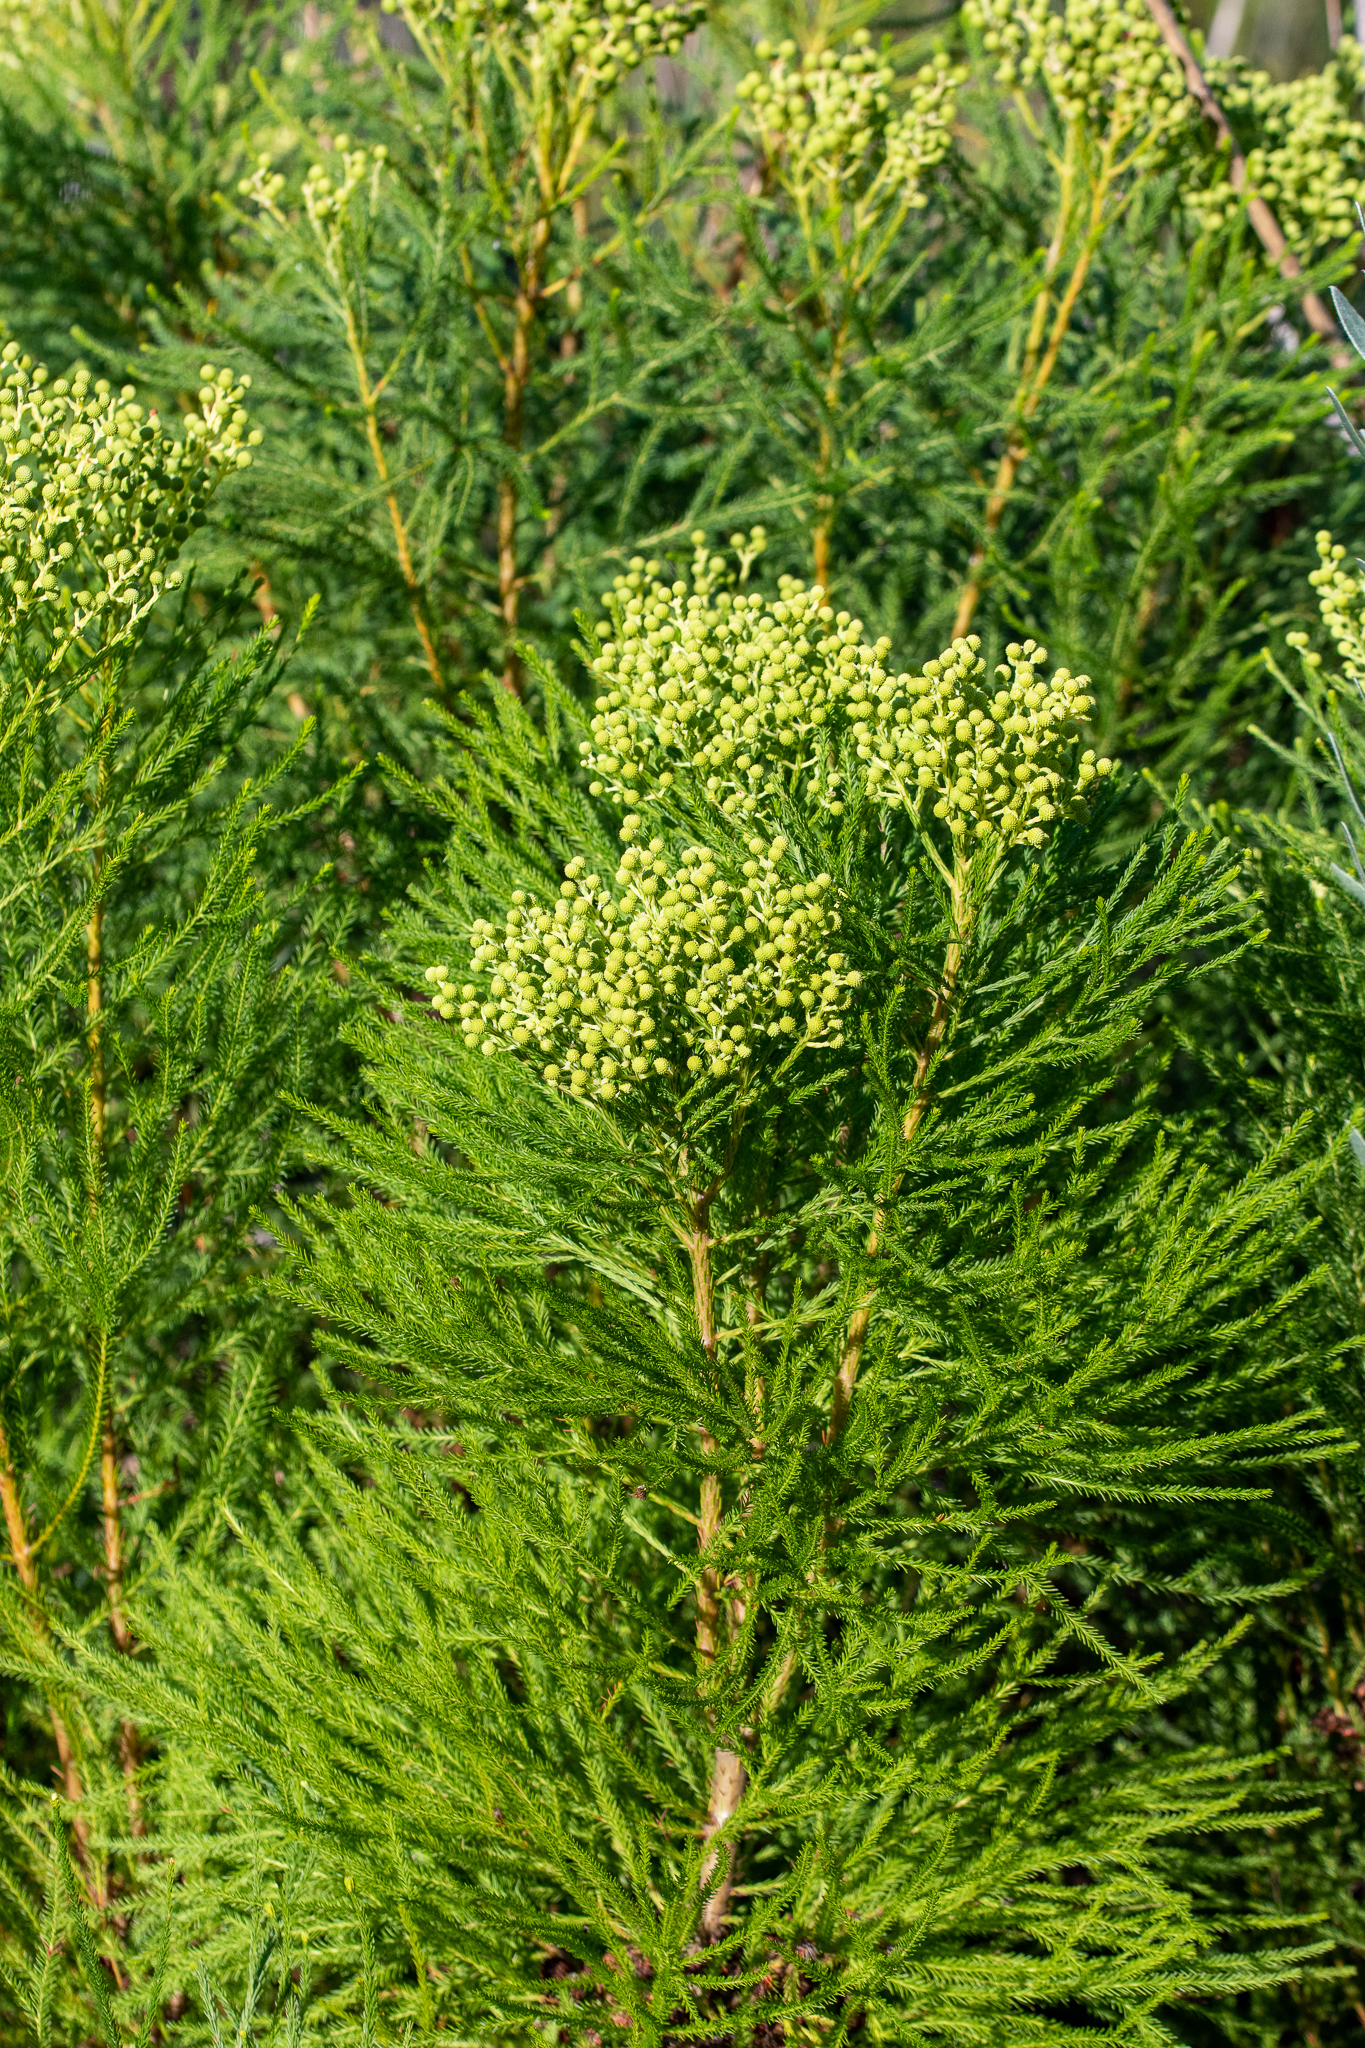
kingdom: Plantae
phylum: Tracheophyta
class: Magnoliopsida
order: Bruniales
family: Bruniaceae
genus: Berzelia
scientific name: Berzelia lanuginosa
